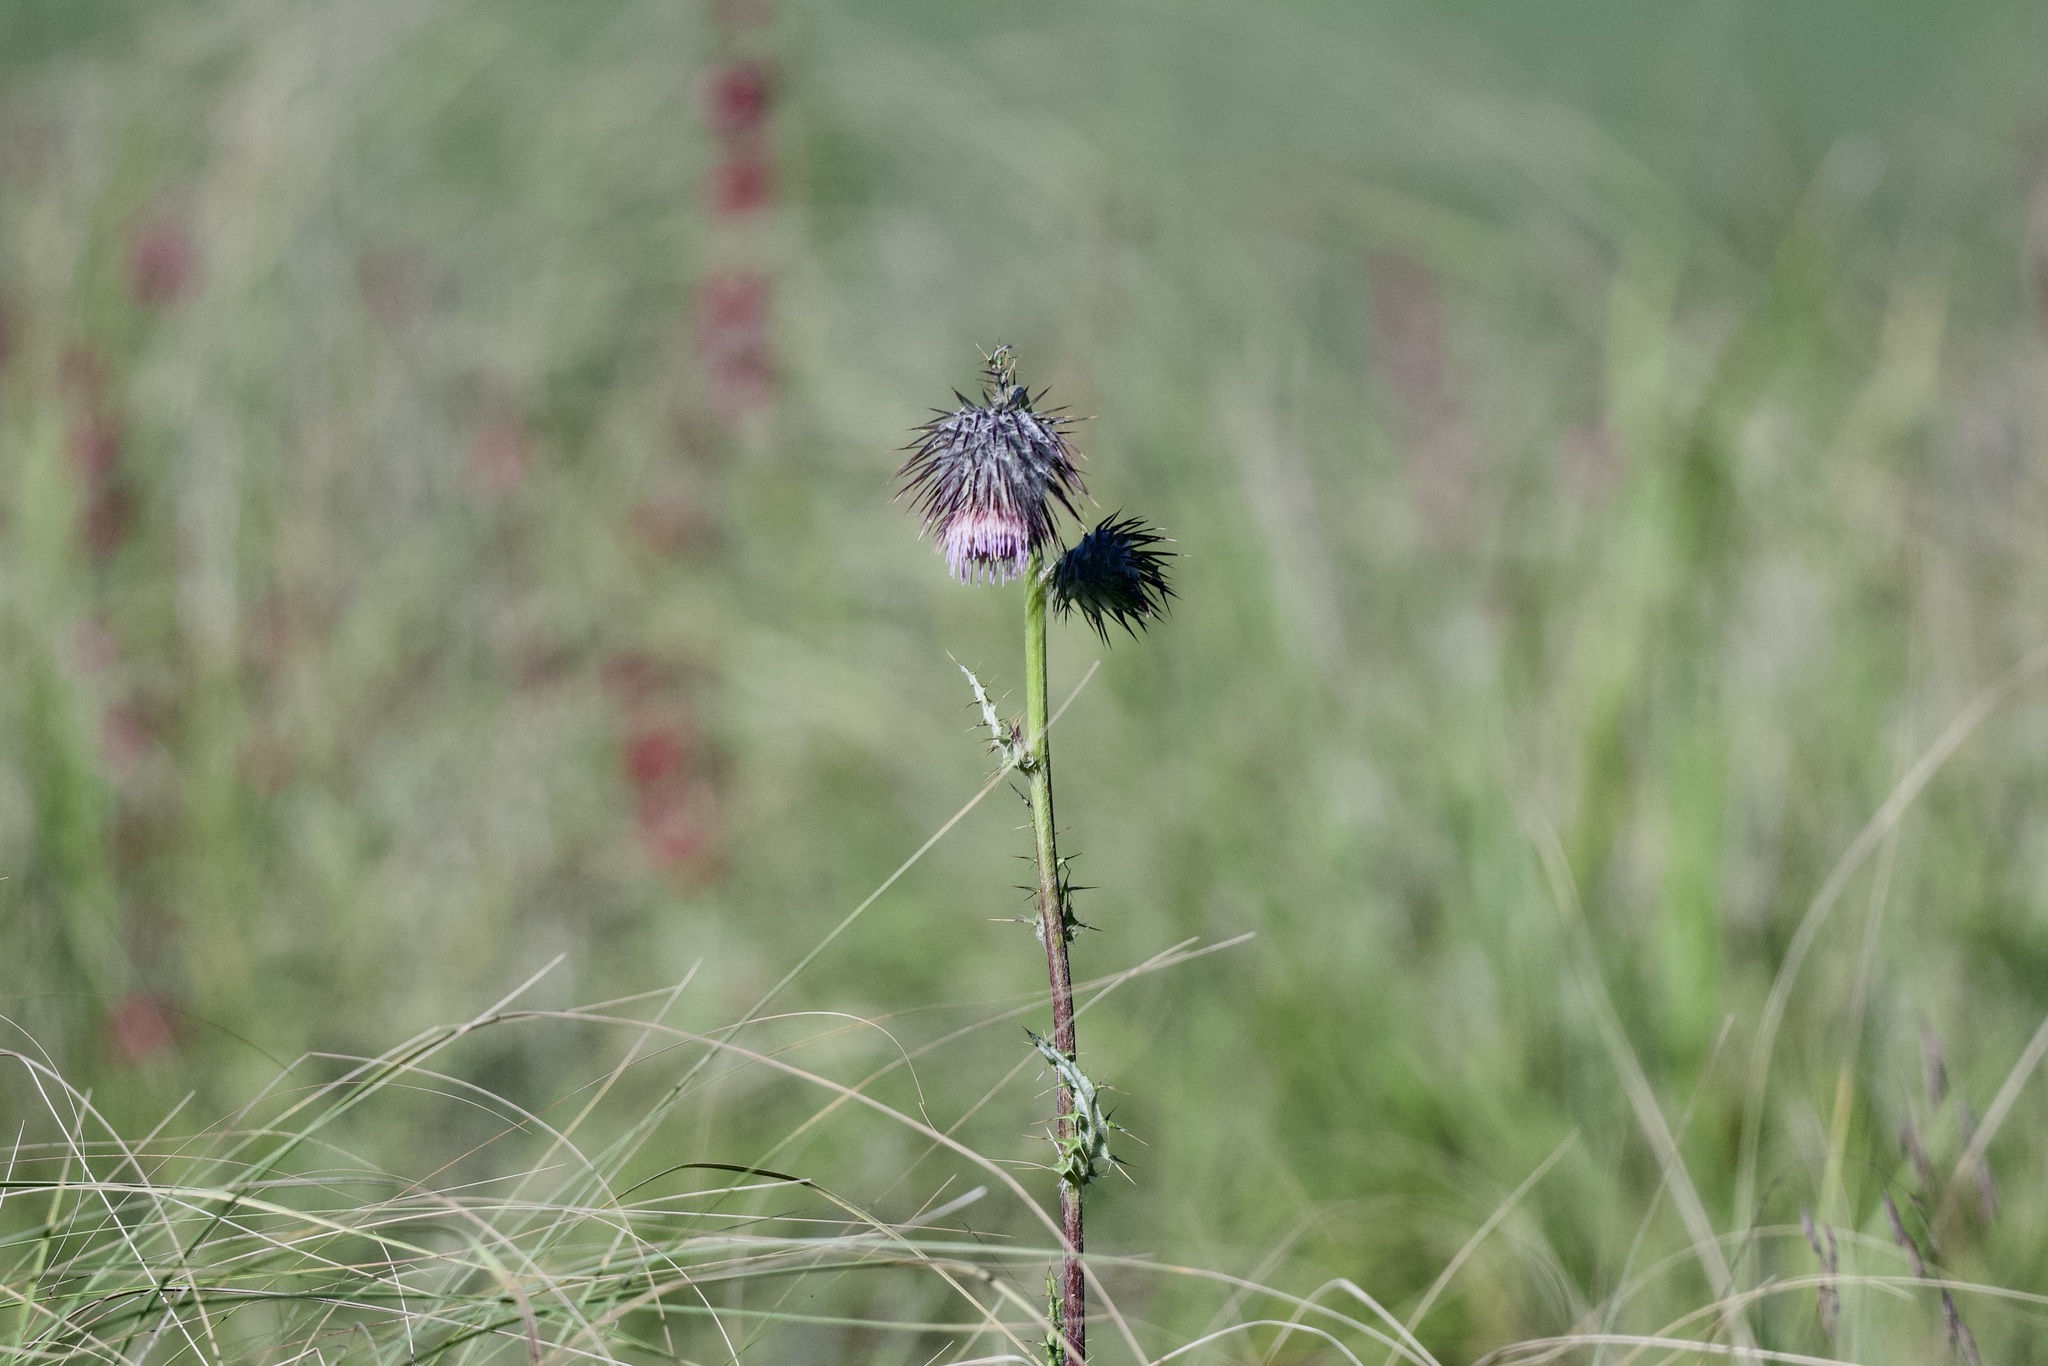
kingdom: Plantae
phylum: Tracheophyta
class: Magnoliopsida
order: Asterales
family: Asteraceae
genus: Cirsium
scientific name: Cirsium subuliforme
